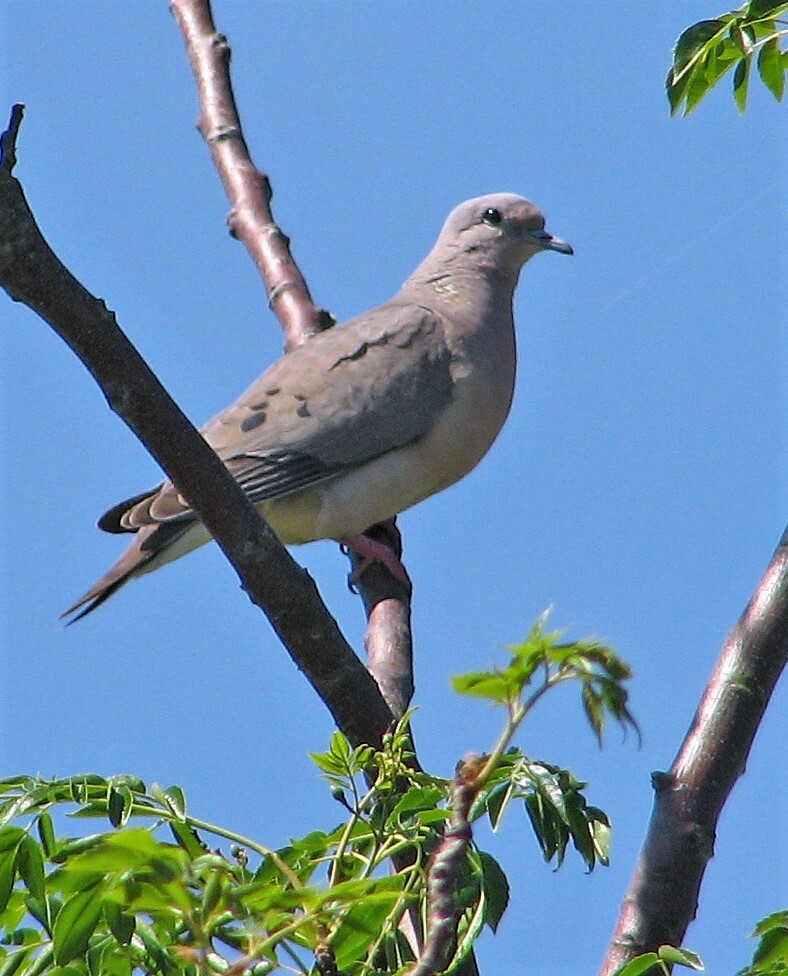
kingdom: Animalia
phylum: Chordata
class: Aves
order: Columbiformes
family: Columbidae
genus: Zenaida
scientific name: Zenaida auriculata
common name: Eared dove
